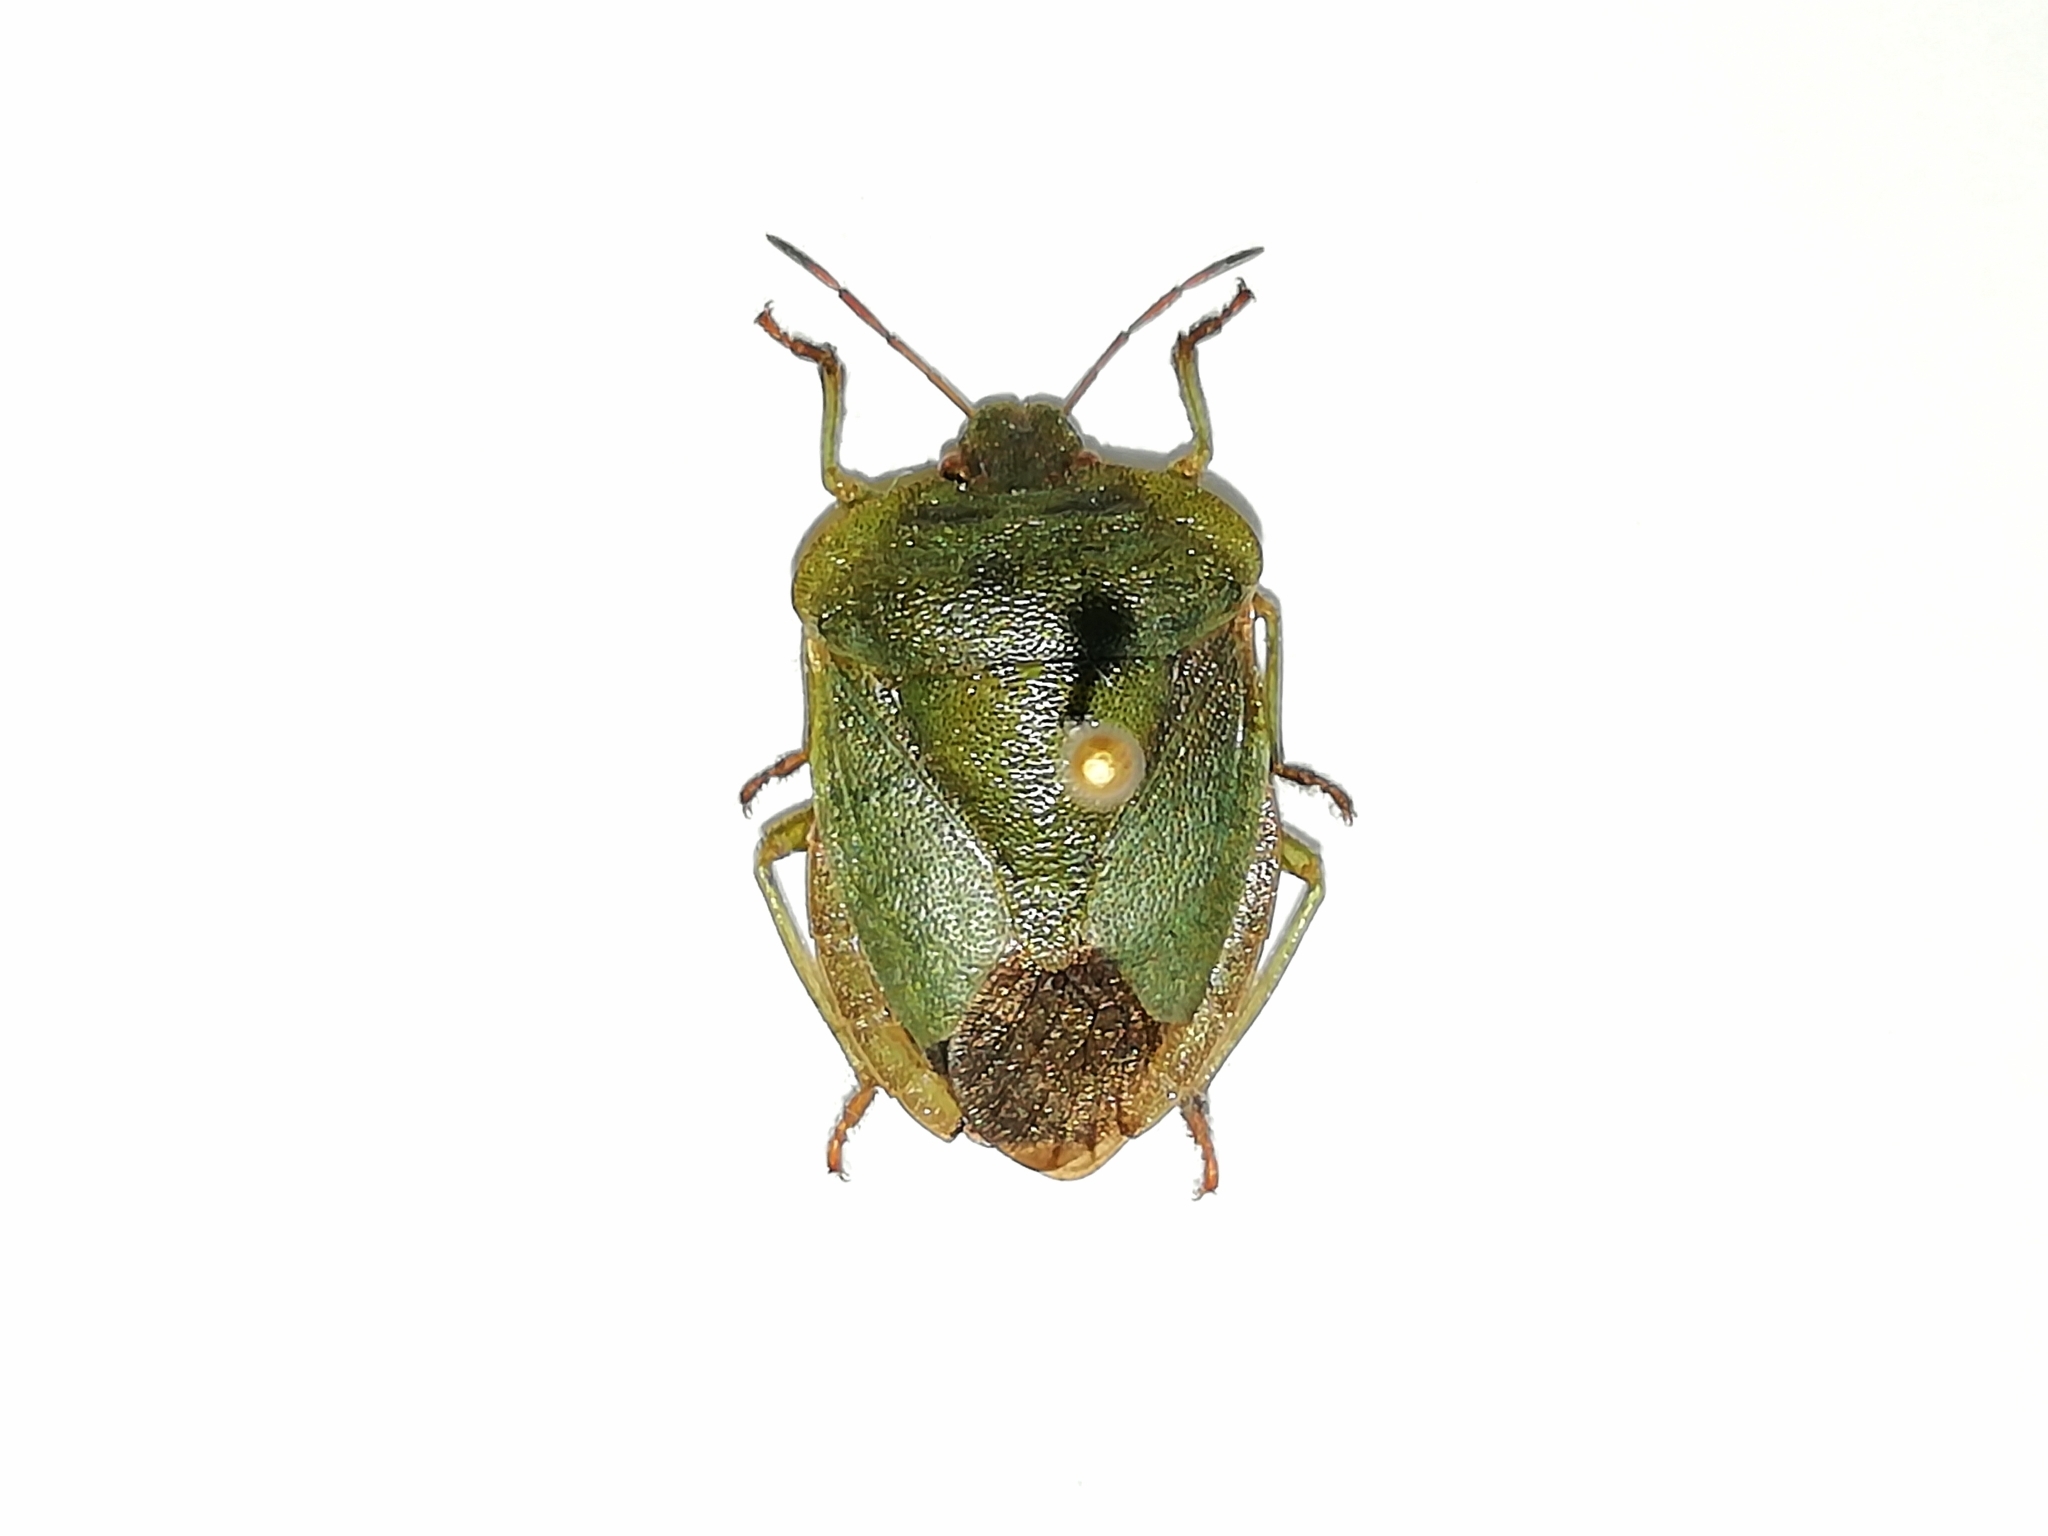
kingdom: Animalia
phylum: Arthropoda
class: Insecta
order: Hemiptera
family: Pentatomidae
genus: Palomena
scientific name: Palomena viridissima
